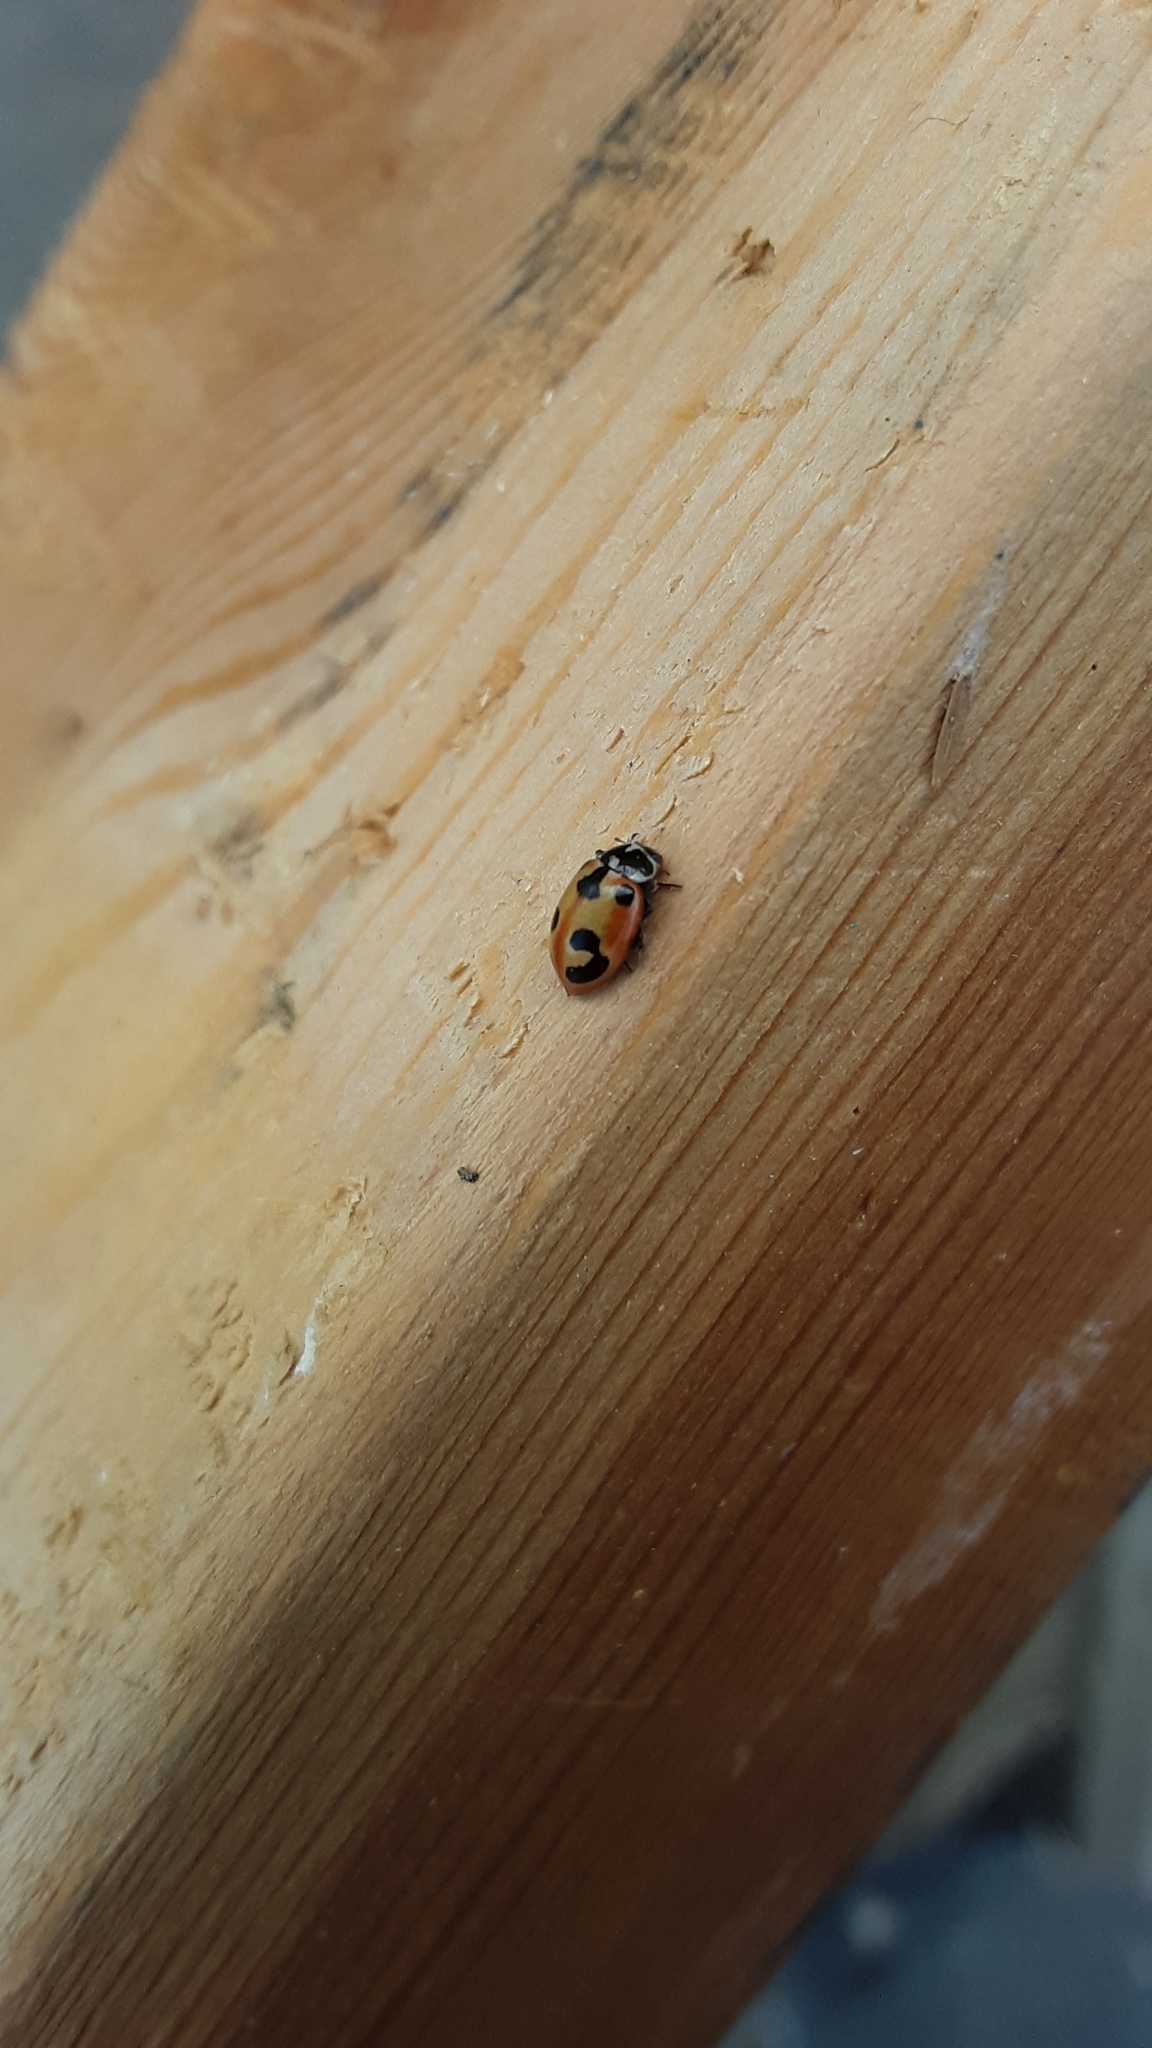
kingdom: Animalia
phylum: Arthropoda
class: Insecta
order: Coleoptera
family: Coccinellidae
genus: Hippodamia
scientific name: Hippodamia parenthesis
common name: Parenthesis lady beetle
